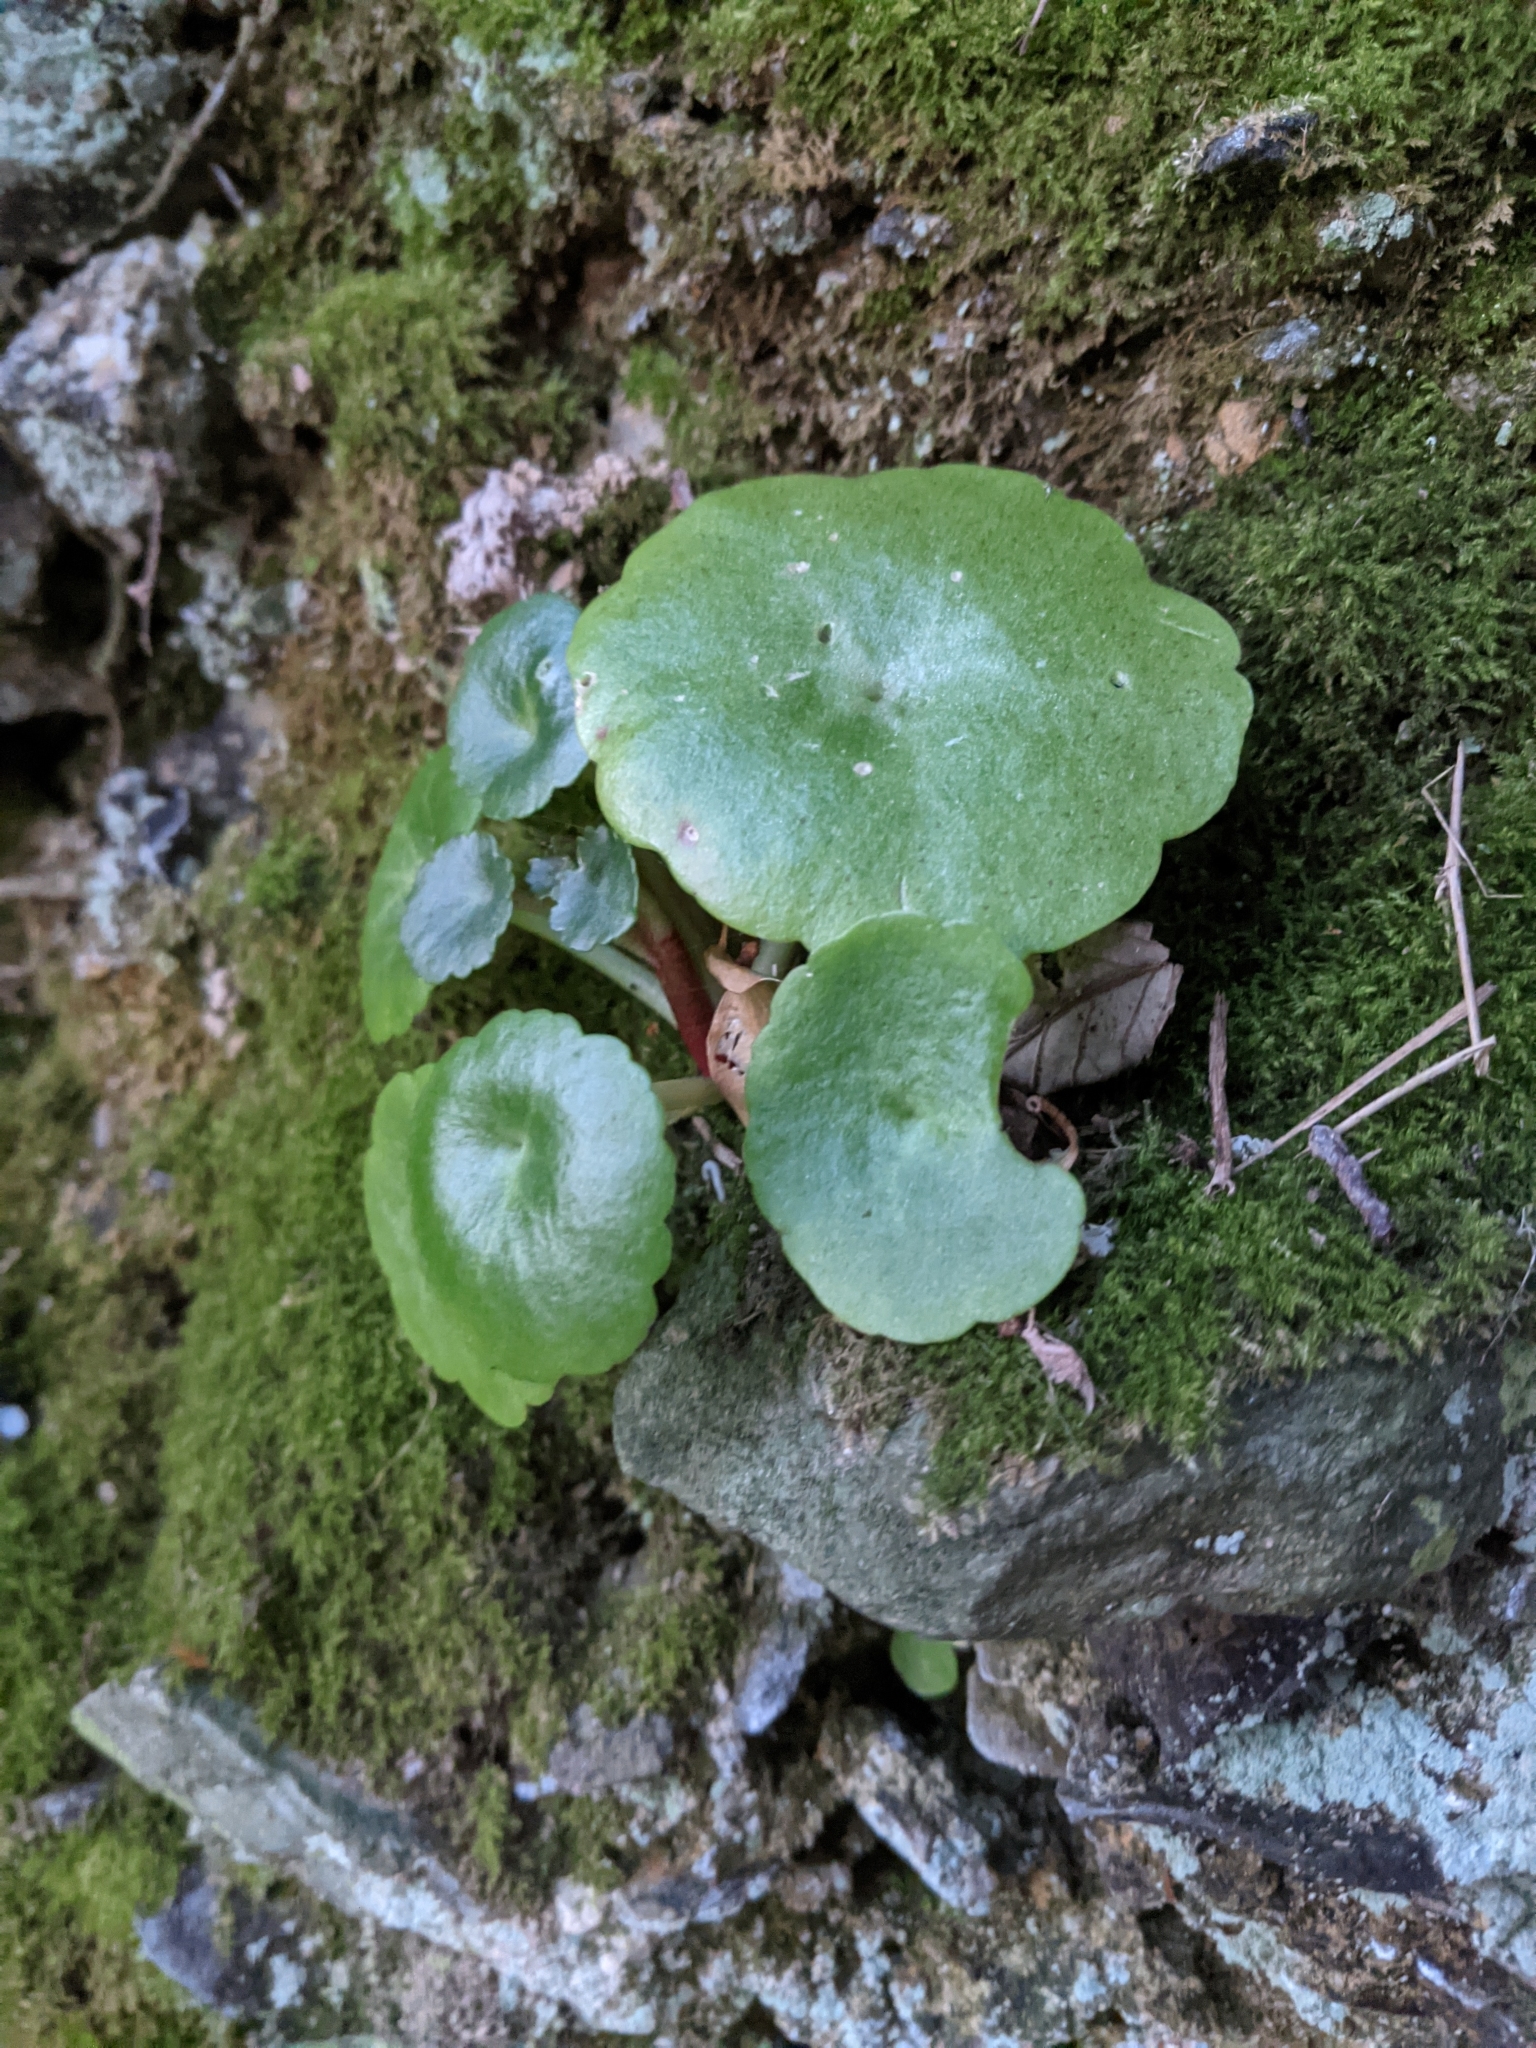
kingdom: Plantae
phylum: Tracheophyta
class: Magnoliopsida
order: Saxifragales
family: Crassulaceae
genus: Umbilicus
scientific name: Umbilicus rupestris
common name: Navelwort
